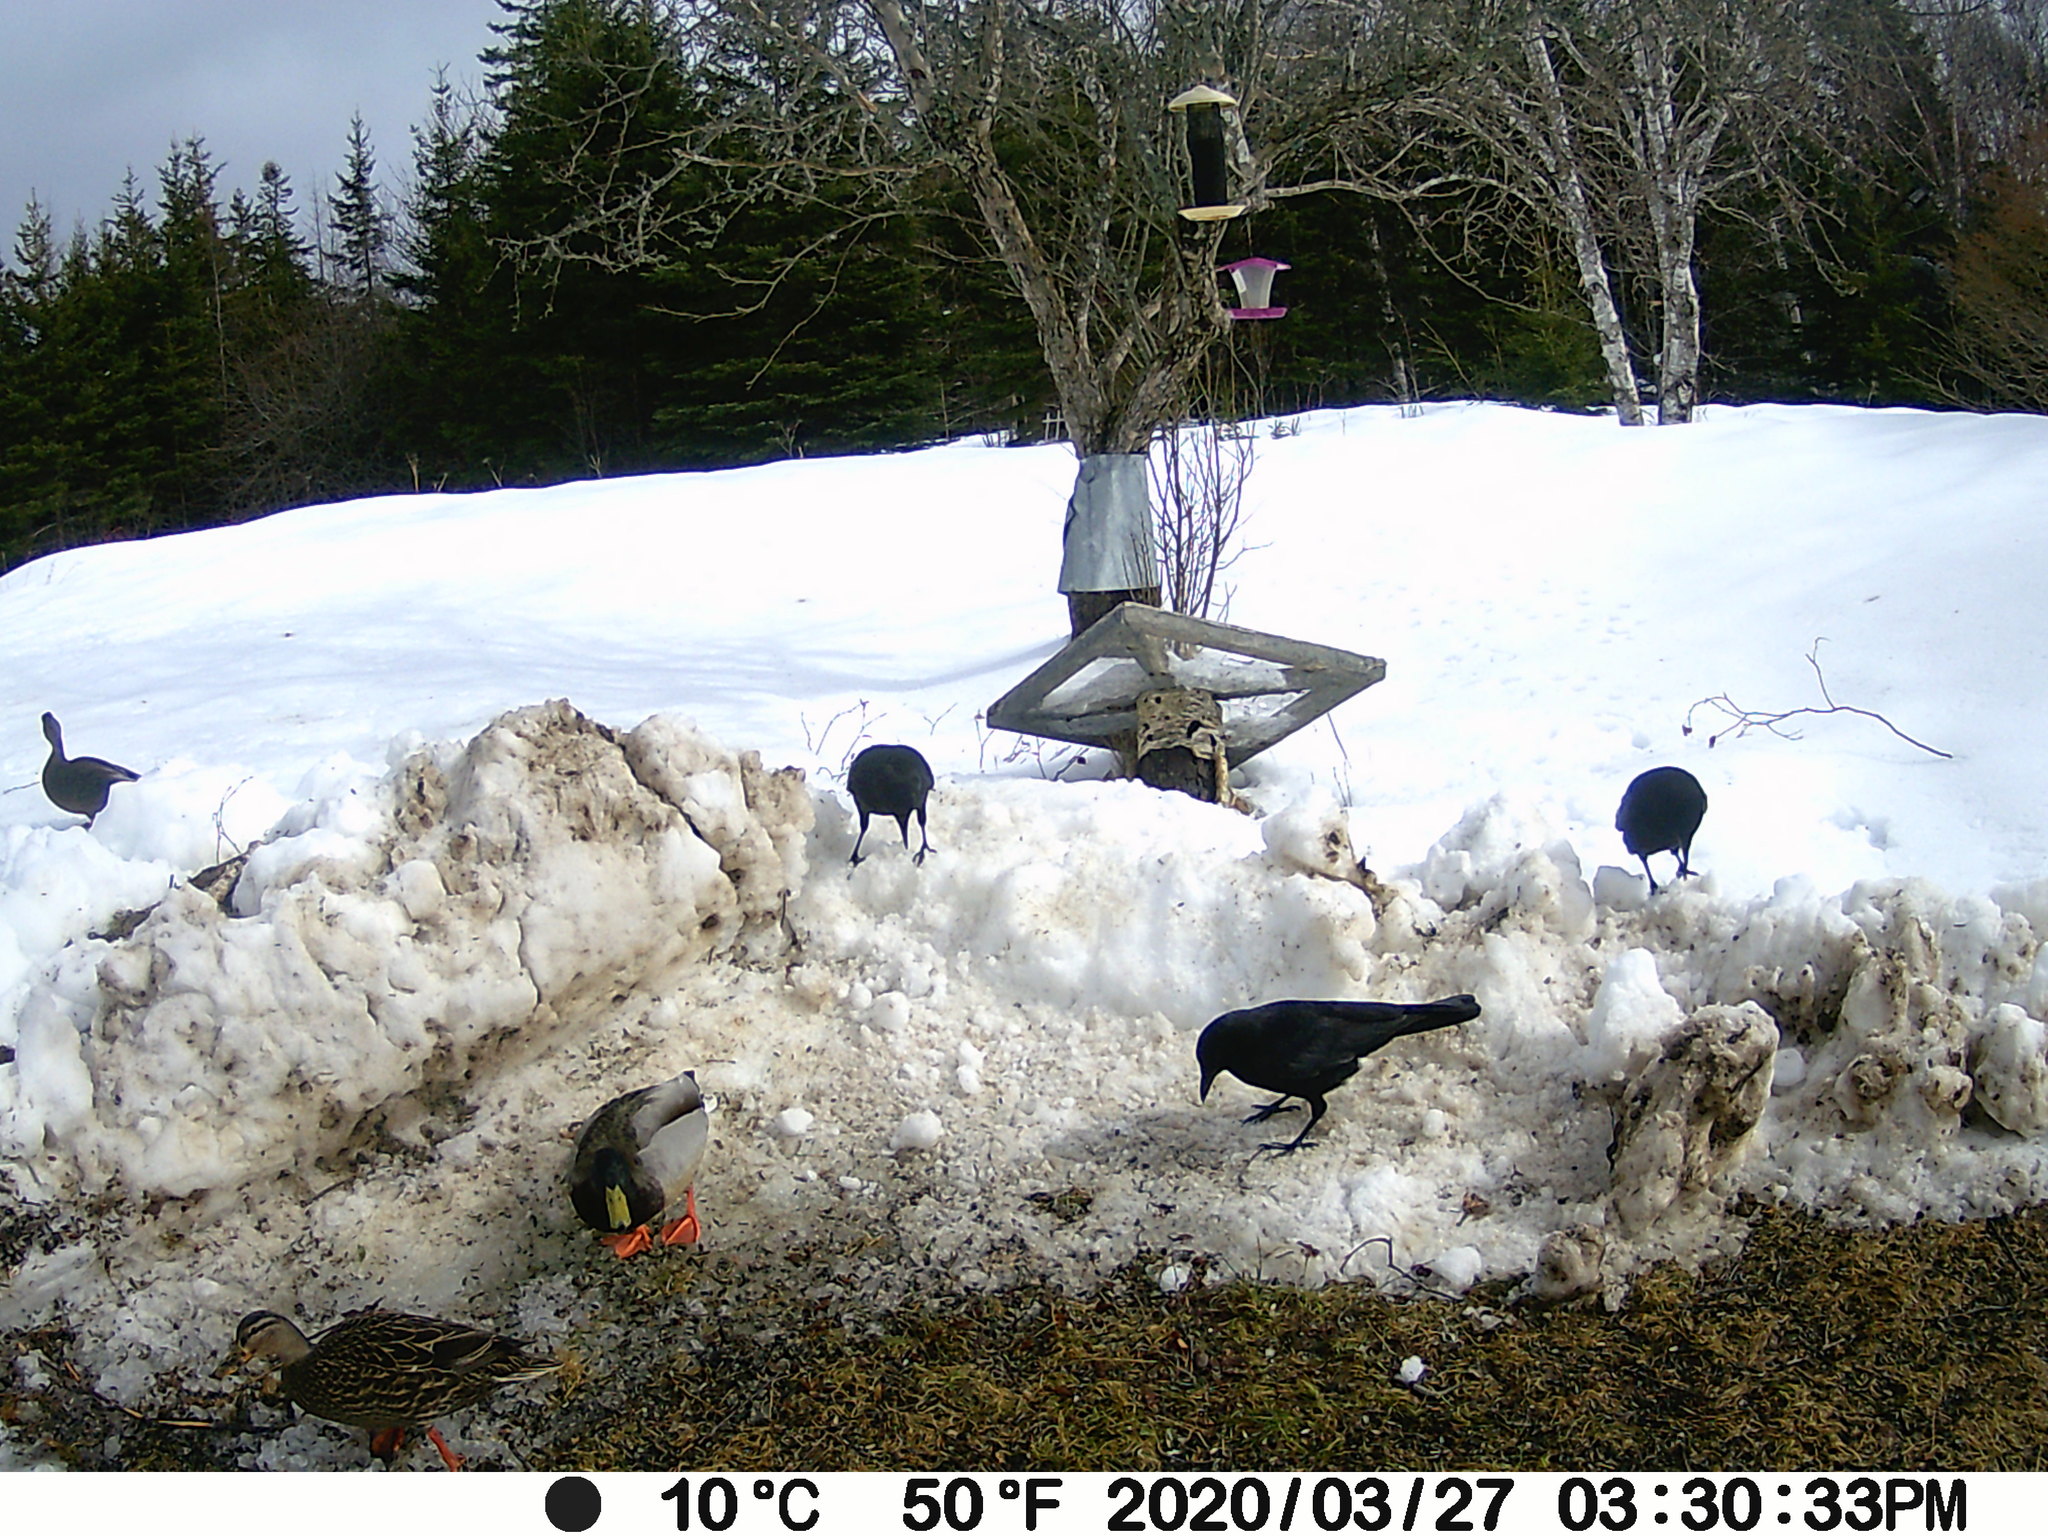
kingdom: Animalia
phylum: Chordata
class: Aves
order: Anseriformes
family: Anatidae
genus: Anas
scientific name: Anas platyrhynchos
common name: Mallard
